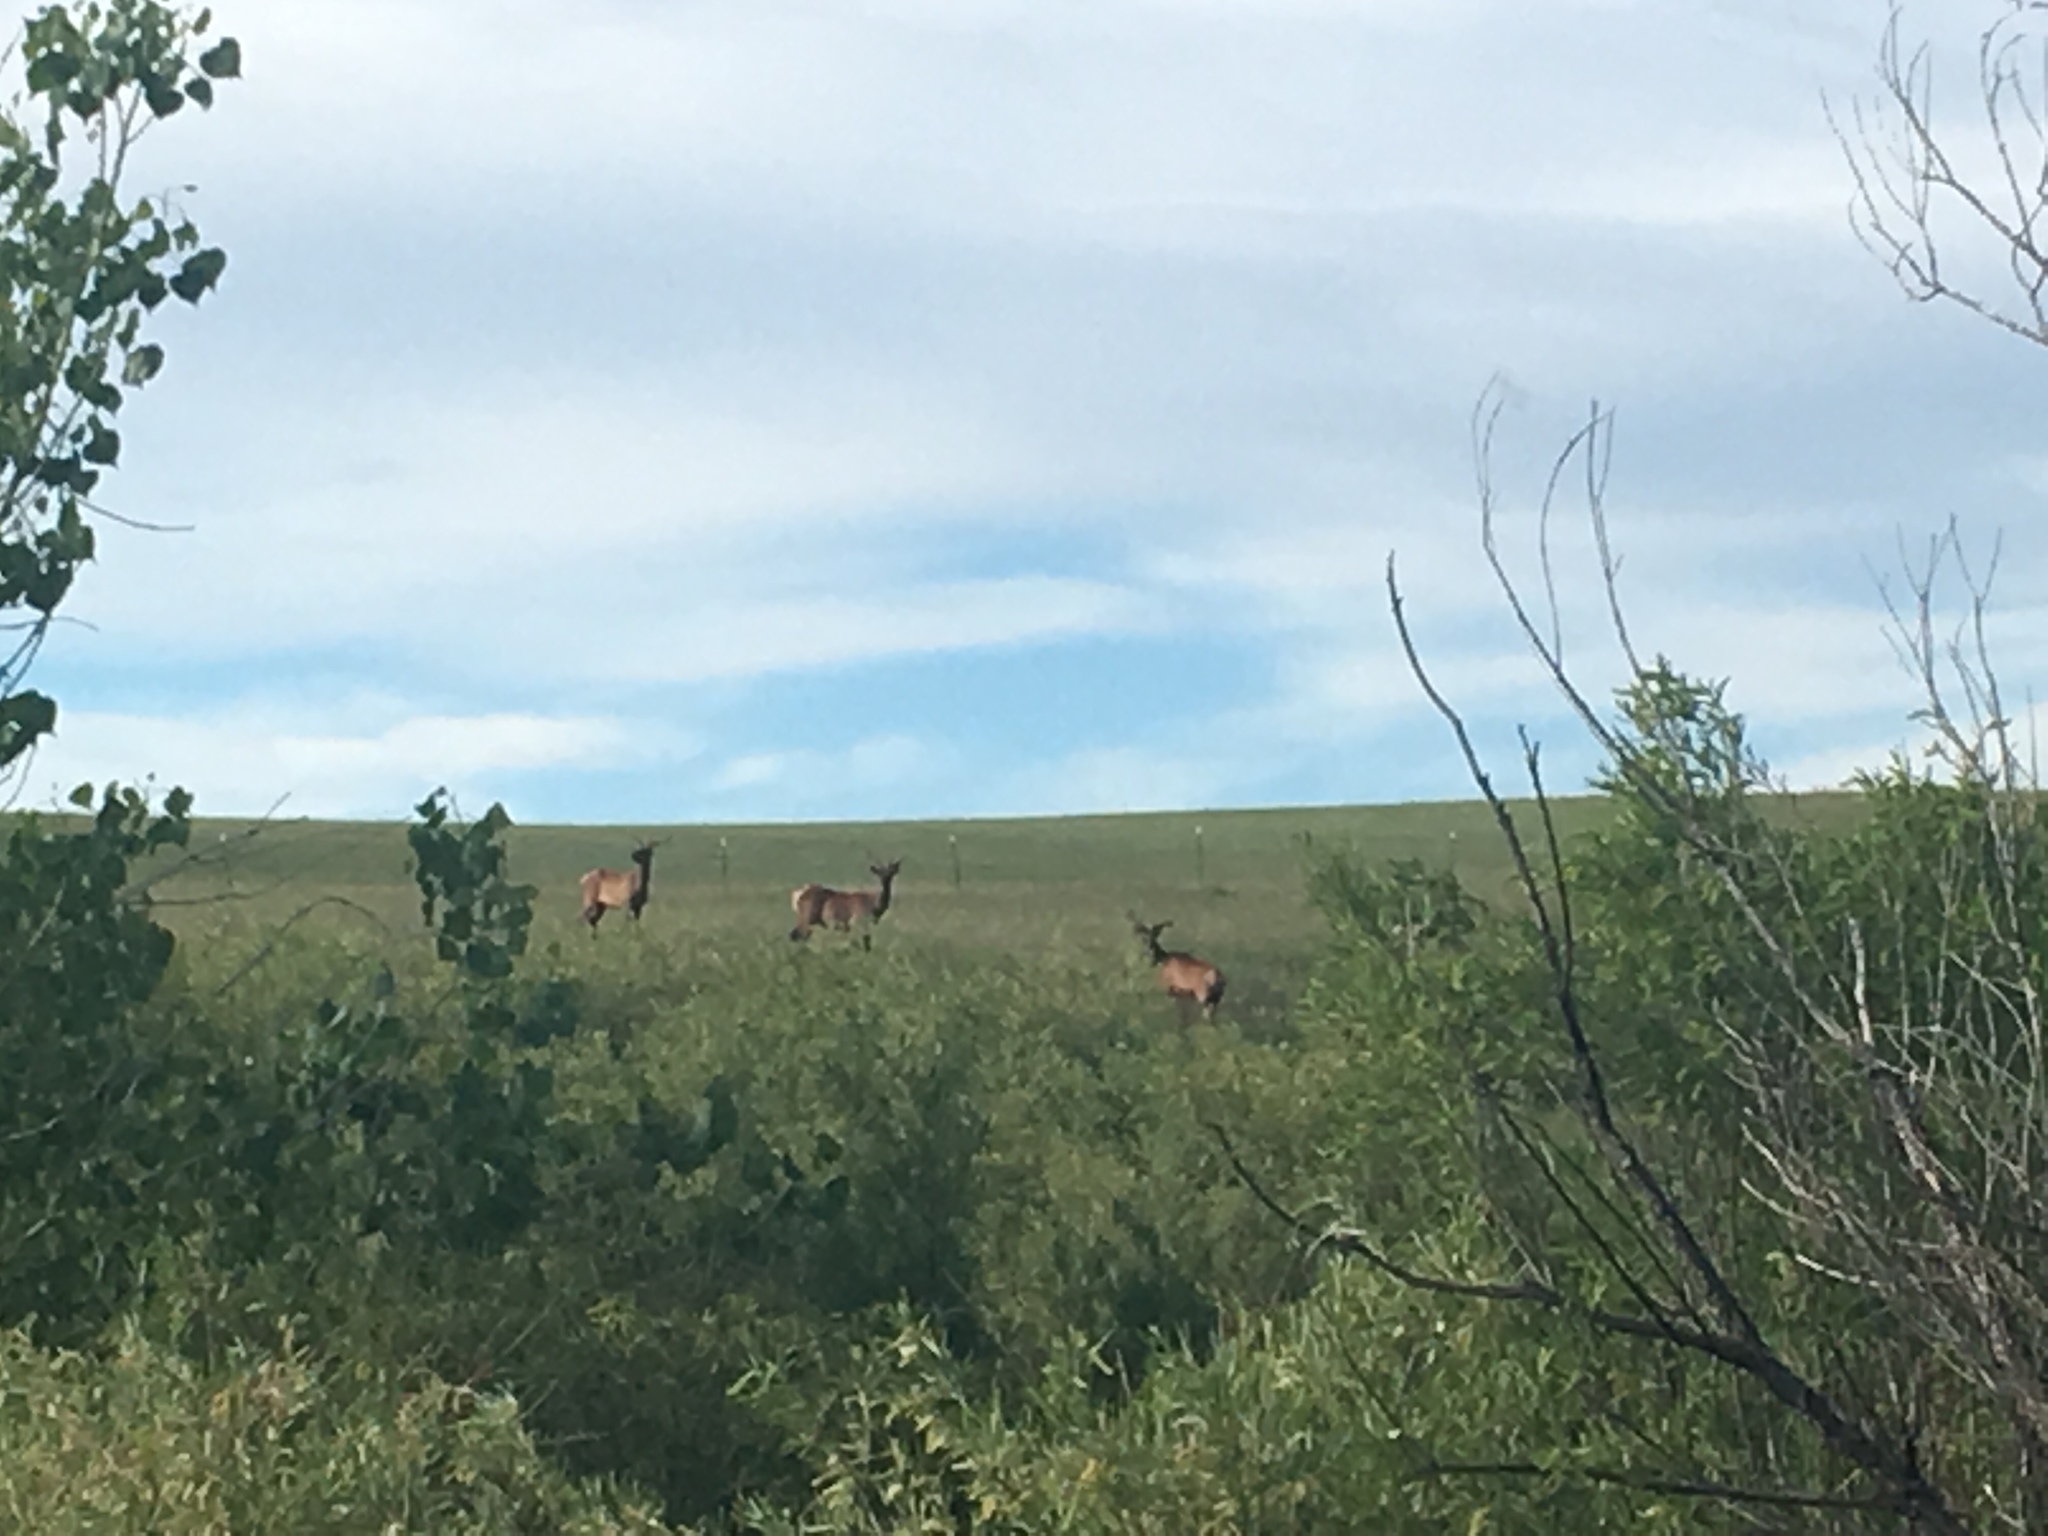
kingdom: Animalia
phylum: Chordata
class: Mammalia
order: Artiodactyla
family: Cervidae
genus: Cervus
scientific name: Cervus elaphus
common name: Red deer
